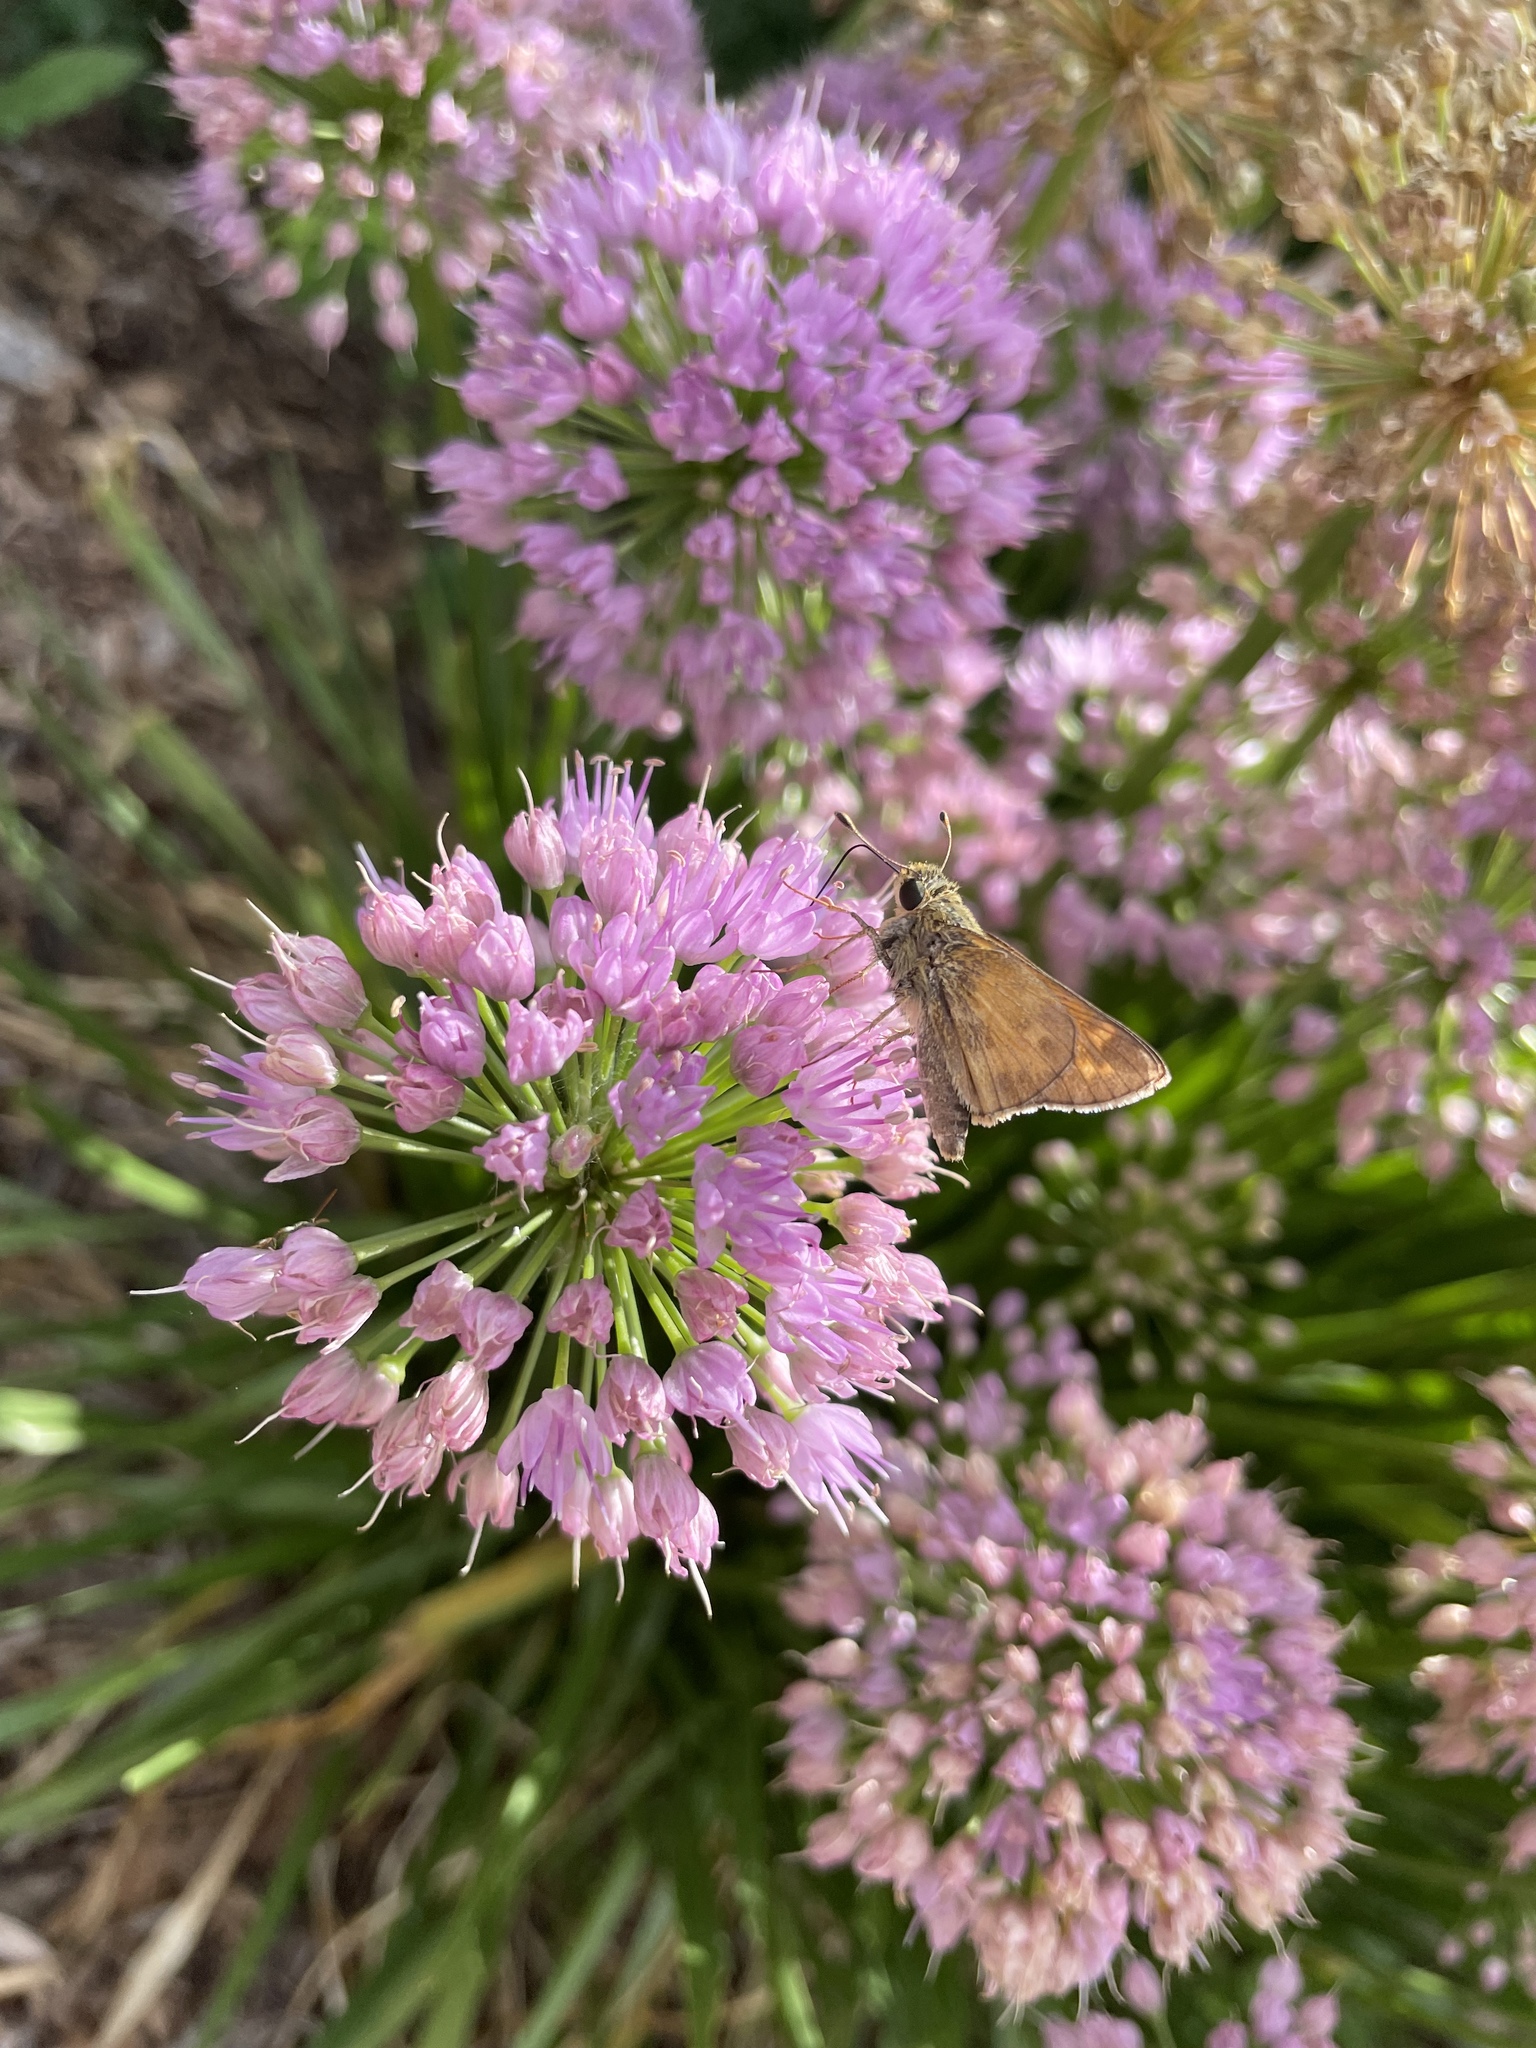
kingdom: Animalia
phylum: Arthropoda
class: Insecta
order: Lepidoptera
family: Hesperiidae
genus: Atalopedes
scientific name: Atalopedes
